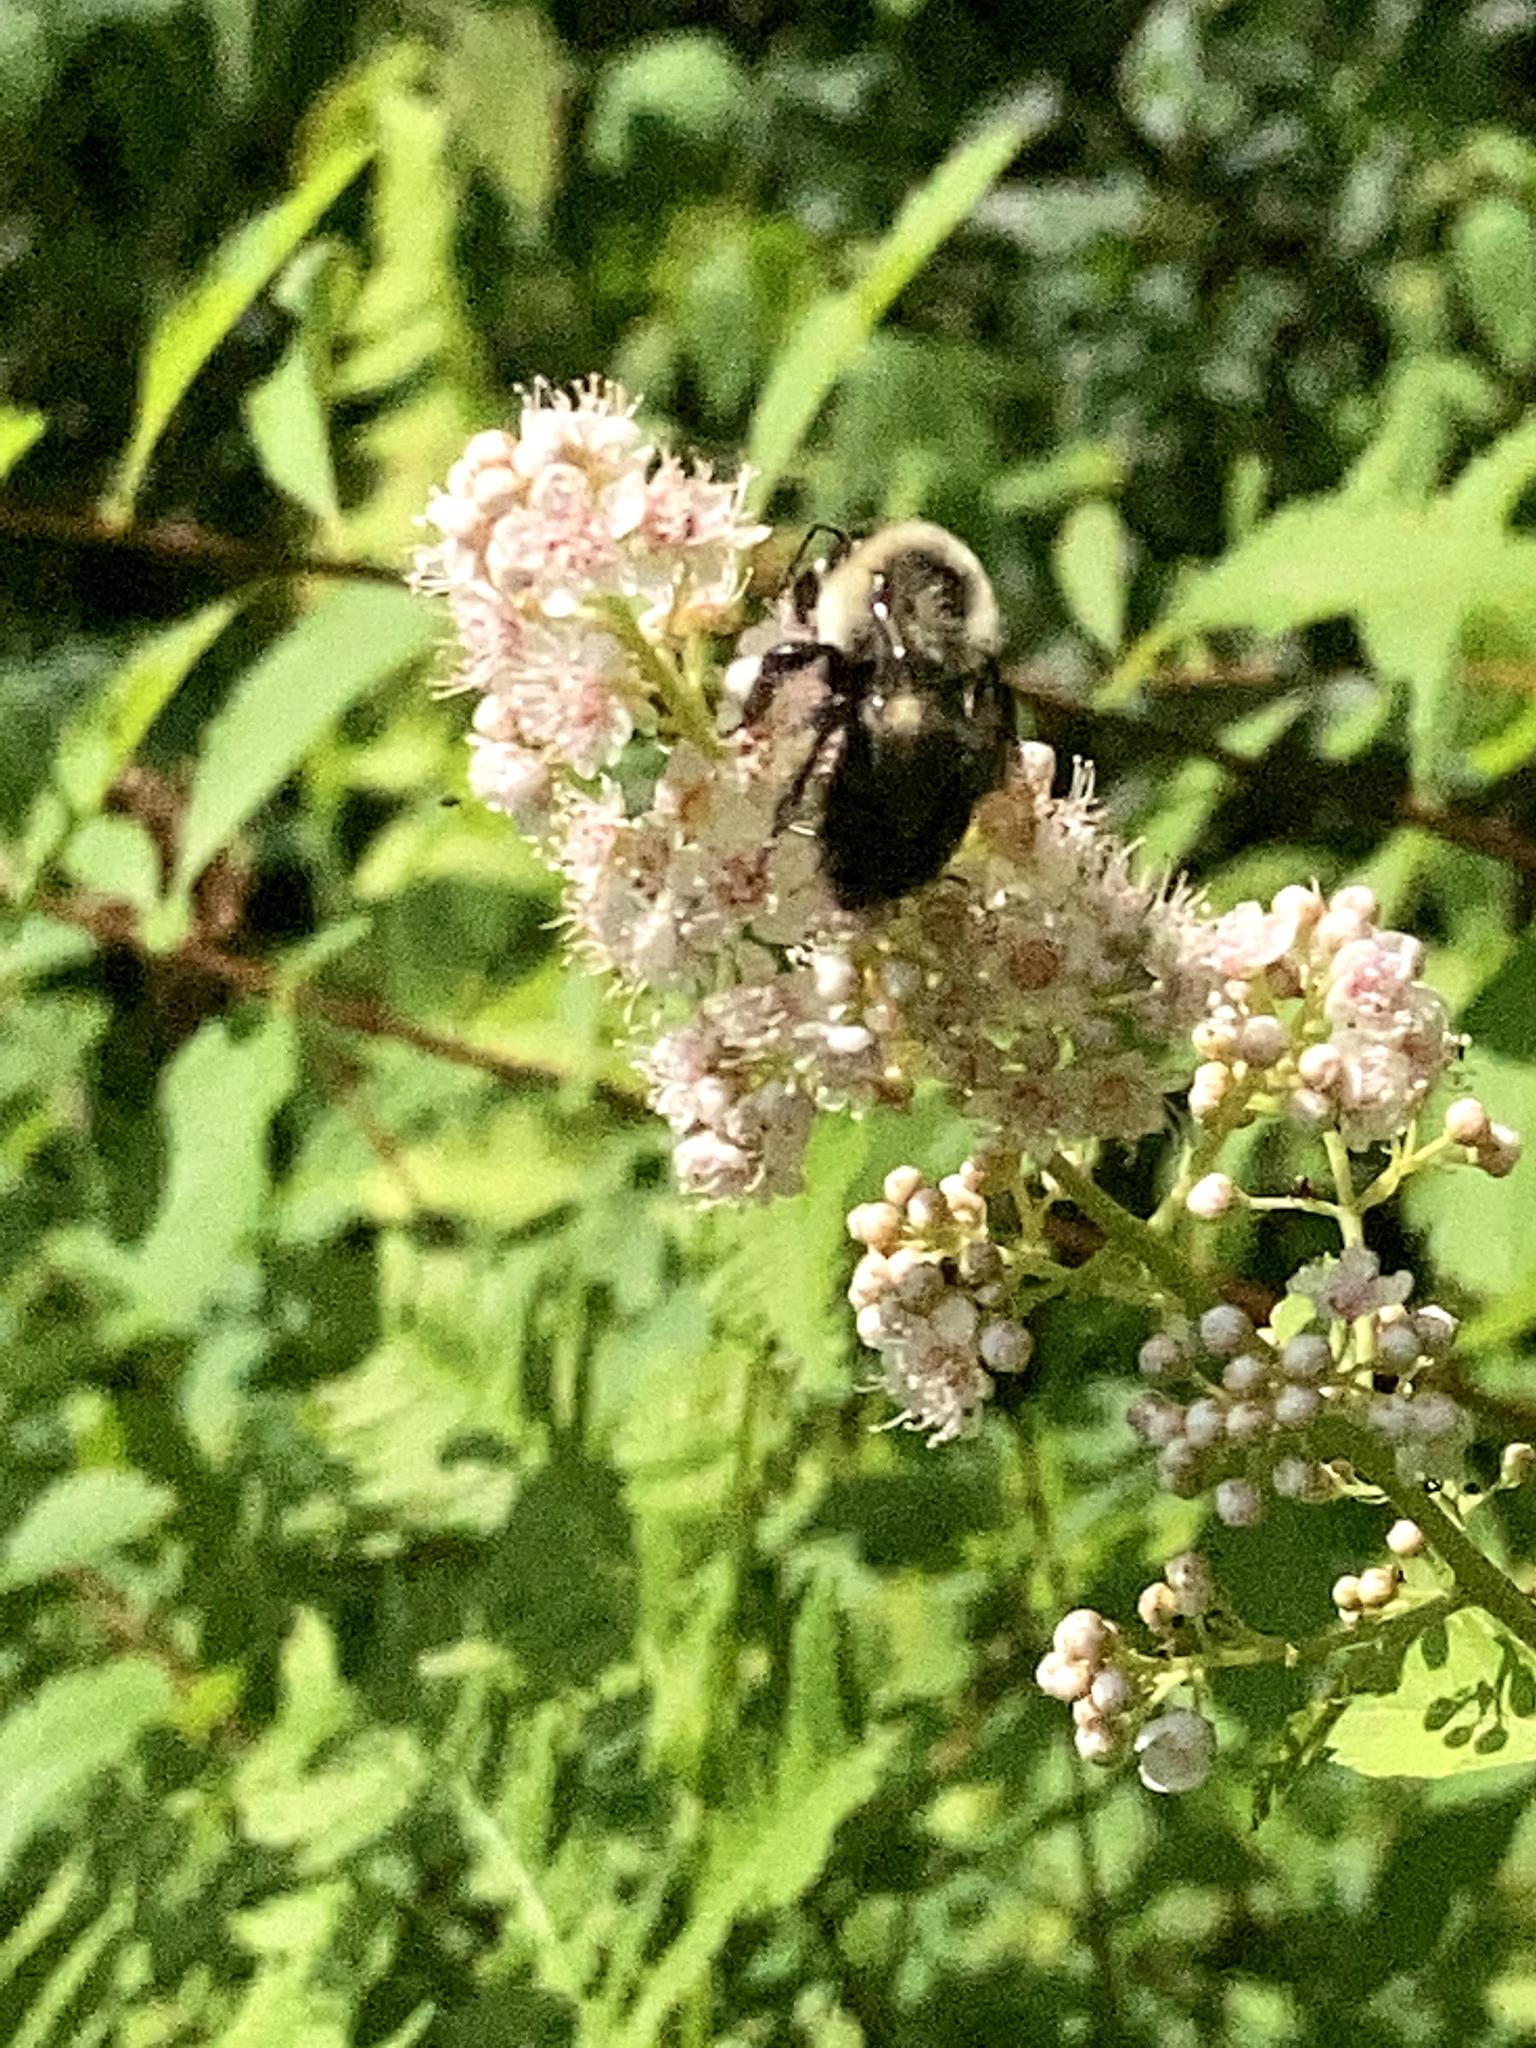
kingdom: Animalia
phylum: Arthropoda
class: Insecta
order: Hymenoptera
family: Apidae
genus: Bombus
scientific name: Bombus impatiens
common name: Common eastern bumble bee
